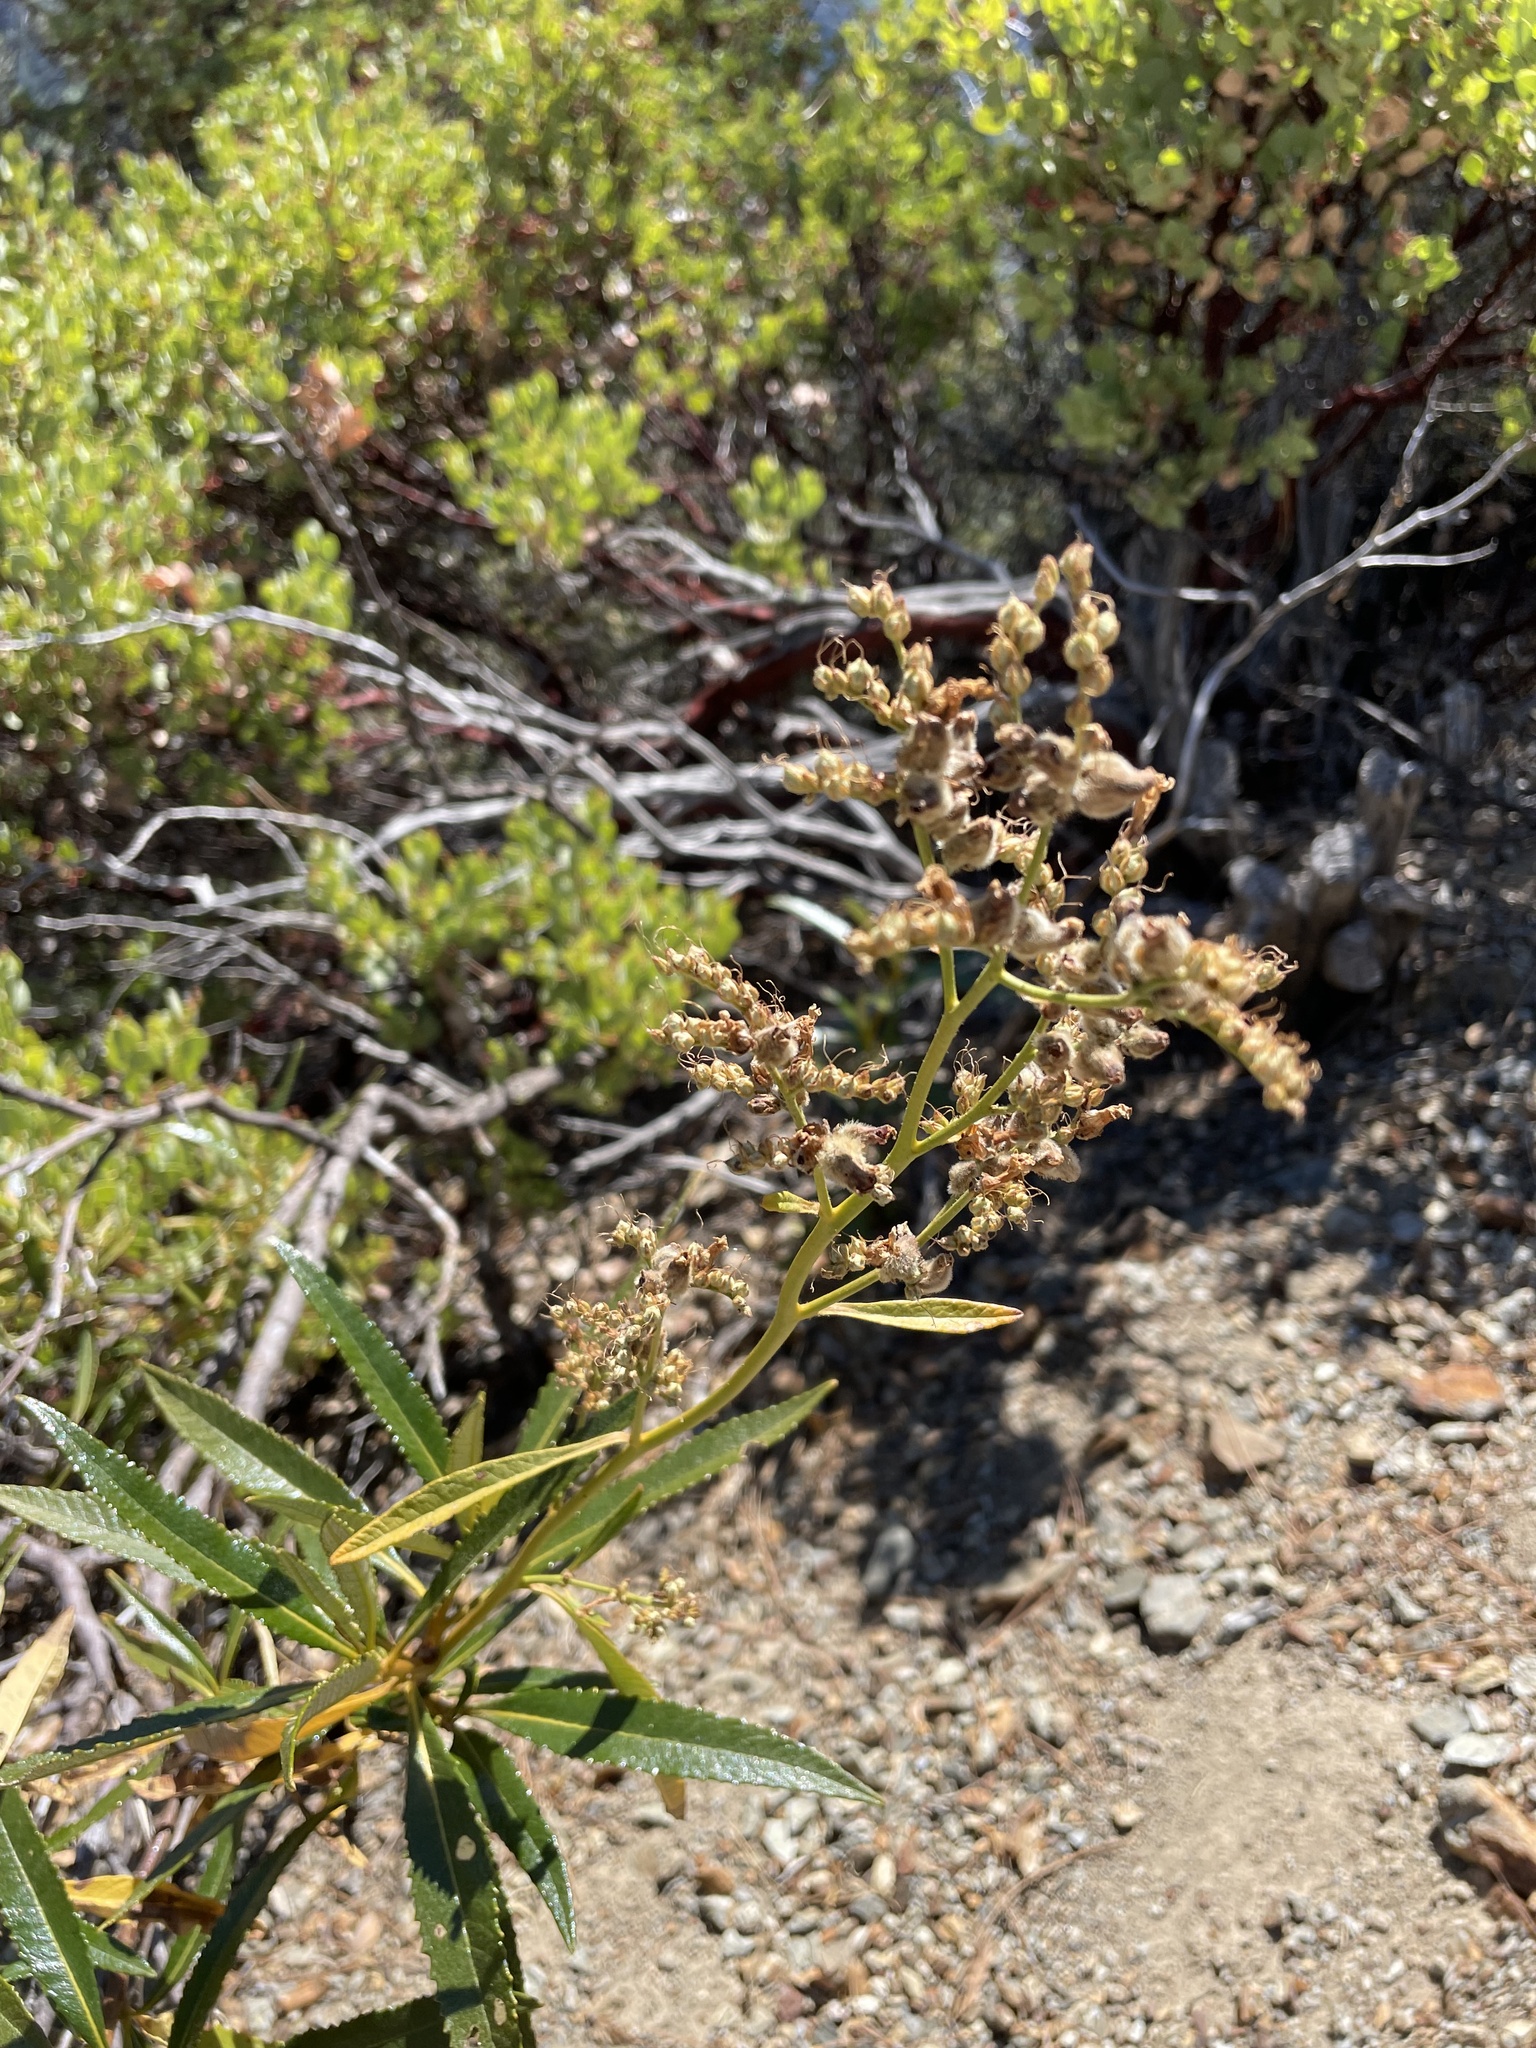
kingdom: Plantae
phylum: Tracheophyta
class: Magnoliopsida
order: Boraginales
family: Namaceae
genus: Eriodictyon
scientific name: Eriodictyon californicum
